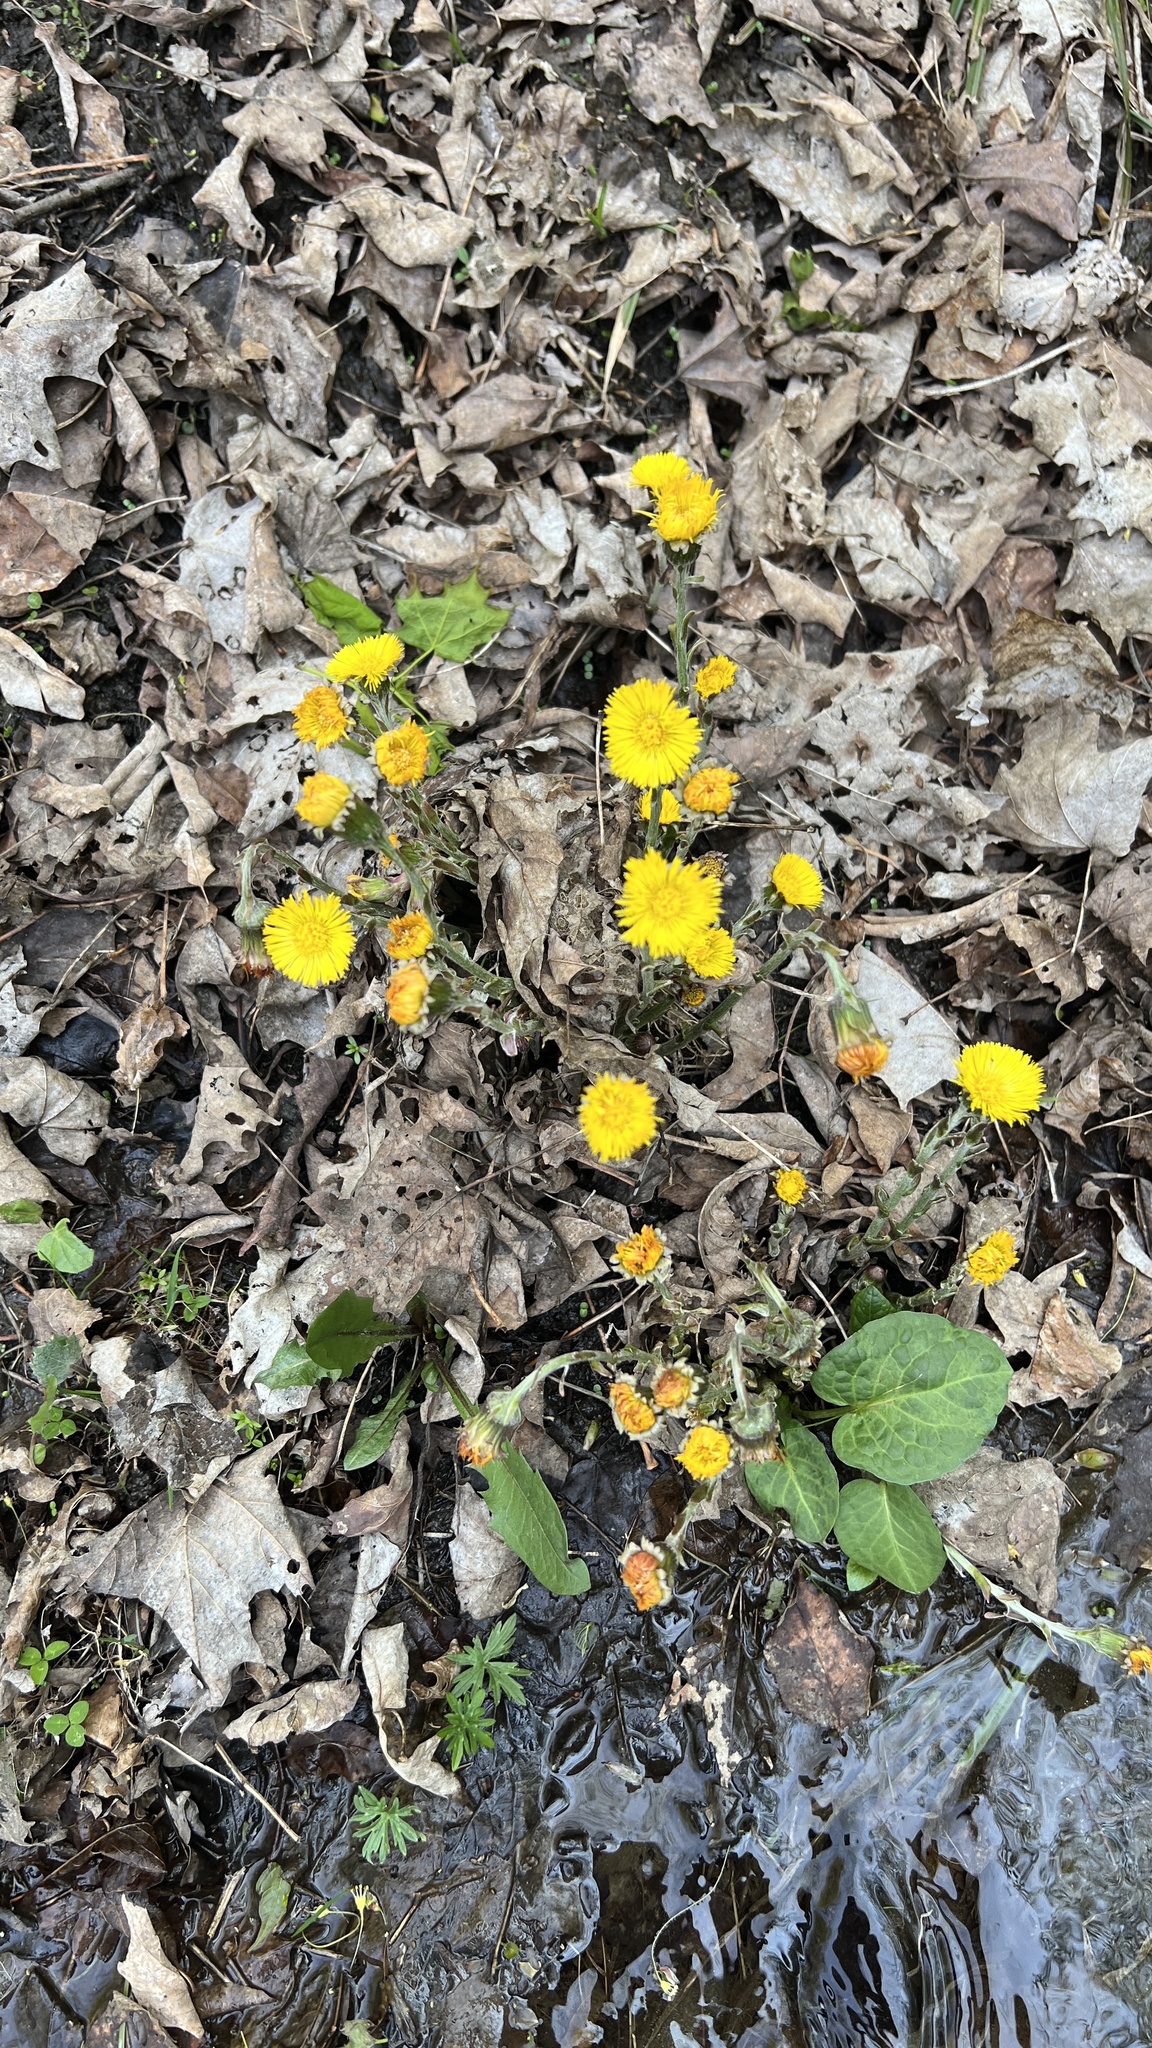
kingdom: Plantae
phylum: Tracheophyta
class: Magnoliopsida
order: Asterales
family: Asteraceae
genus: Tussilago
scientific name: Tussilago farfara
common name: Coltsfoot
